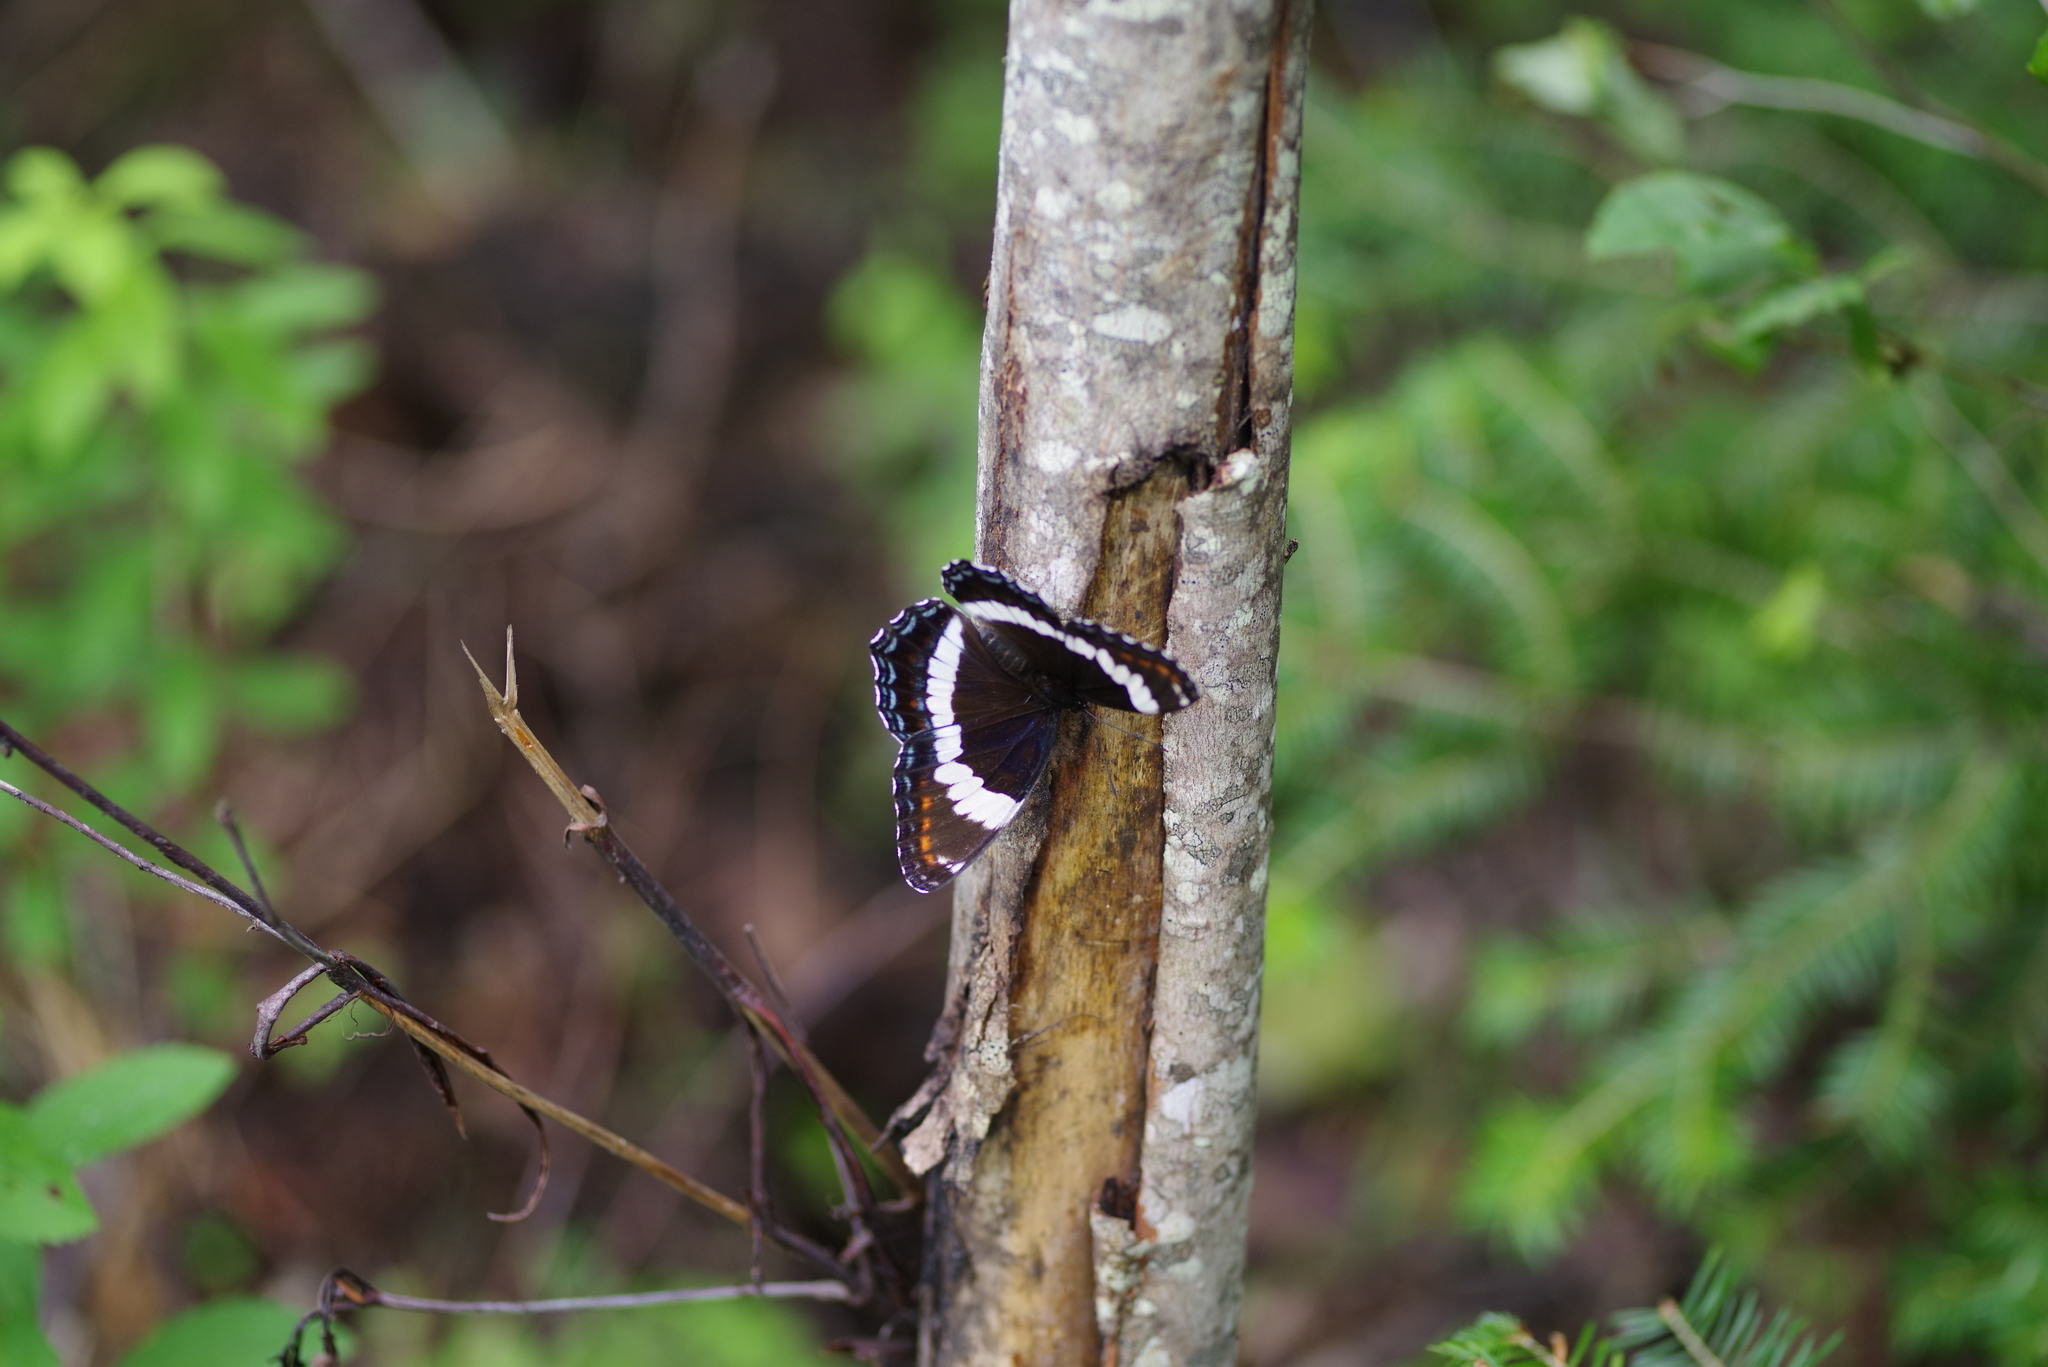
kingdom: Animalia
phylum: Arthropoda
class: Insecta
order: Lepidoptera
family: Nymphalidae
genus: Limenitis
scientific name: Limenitis arthemis
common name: Red-spotted admiral
